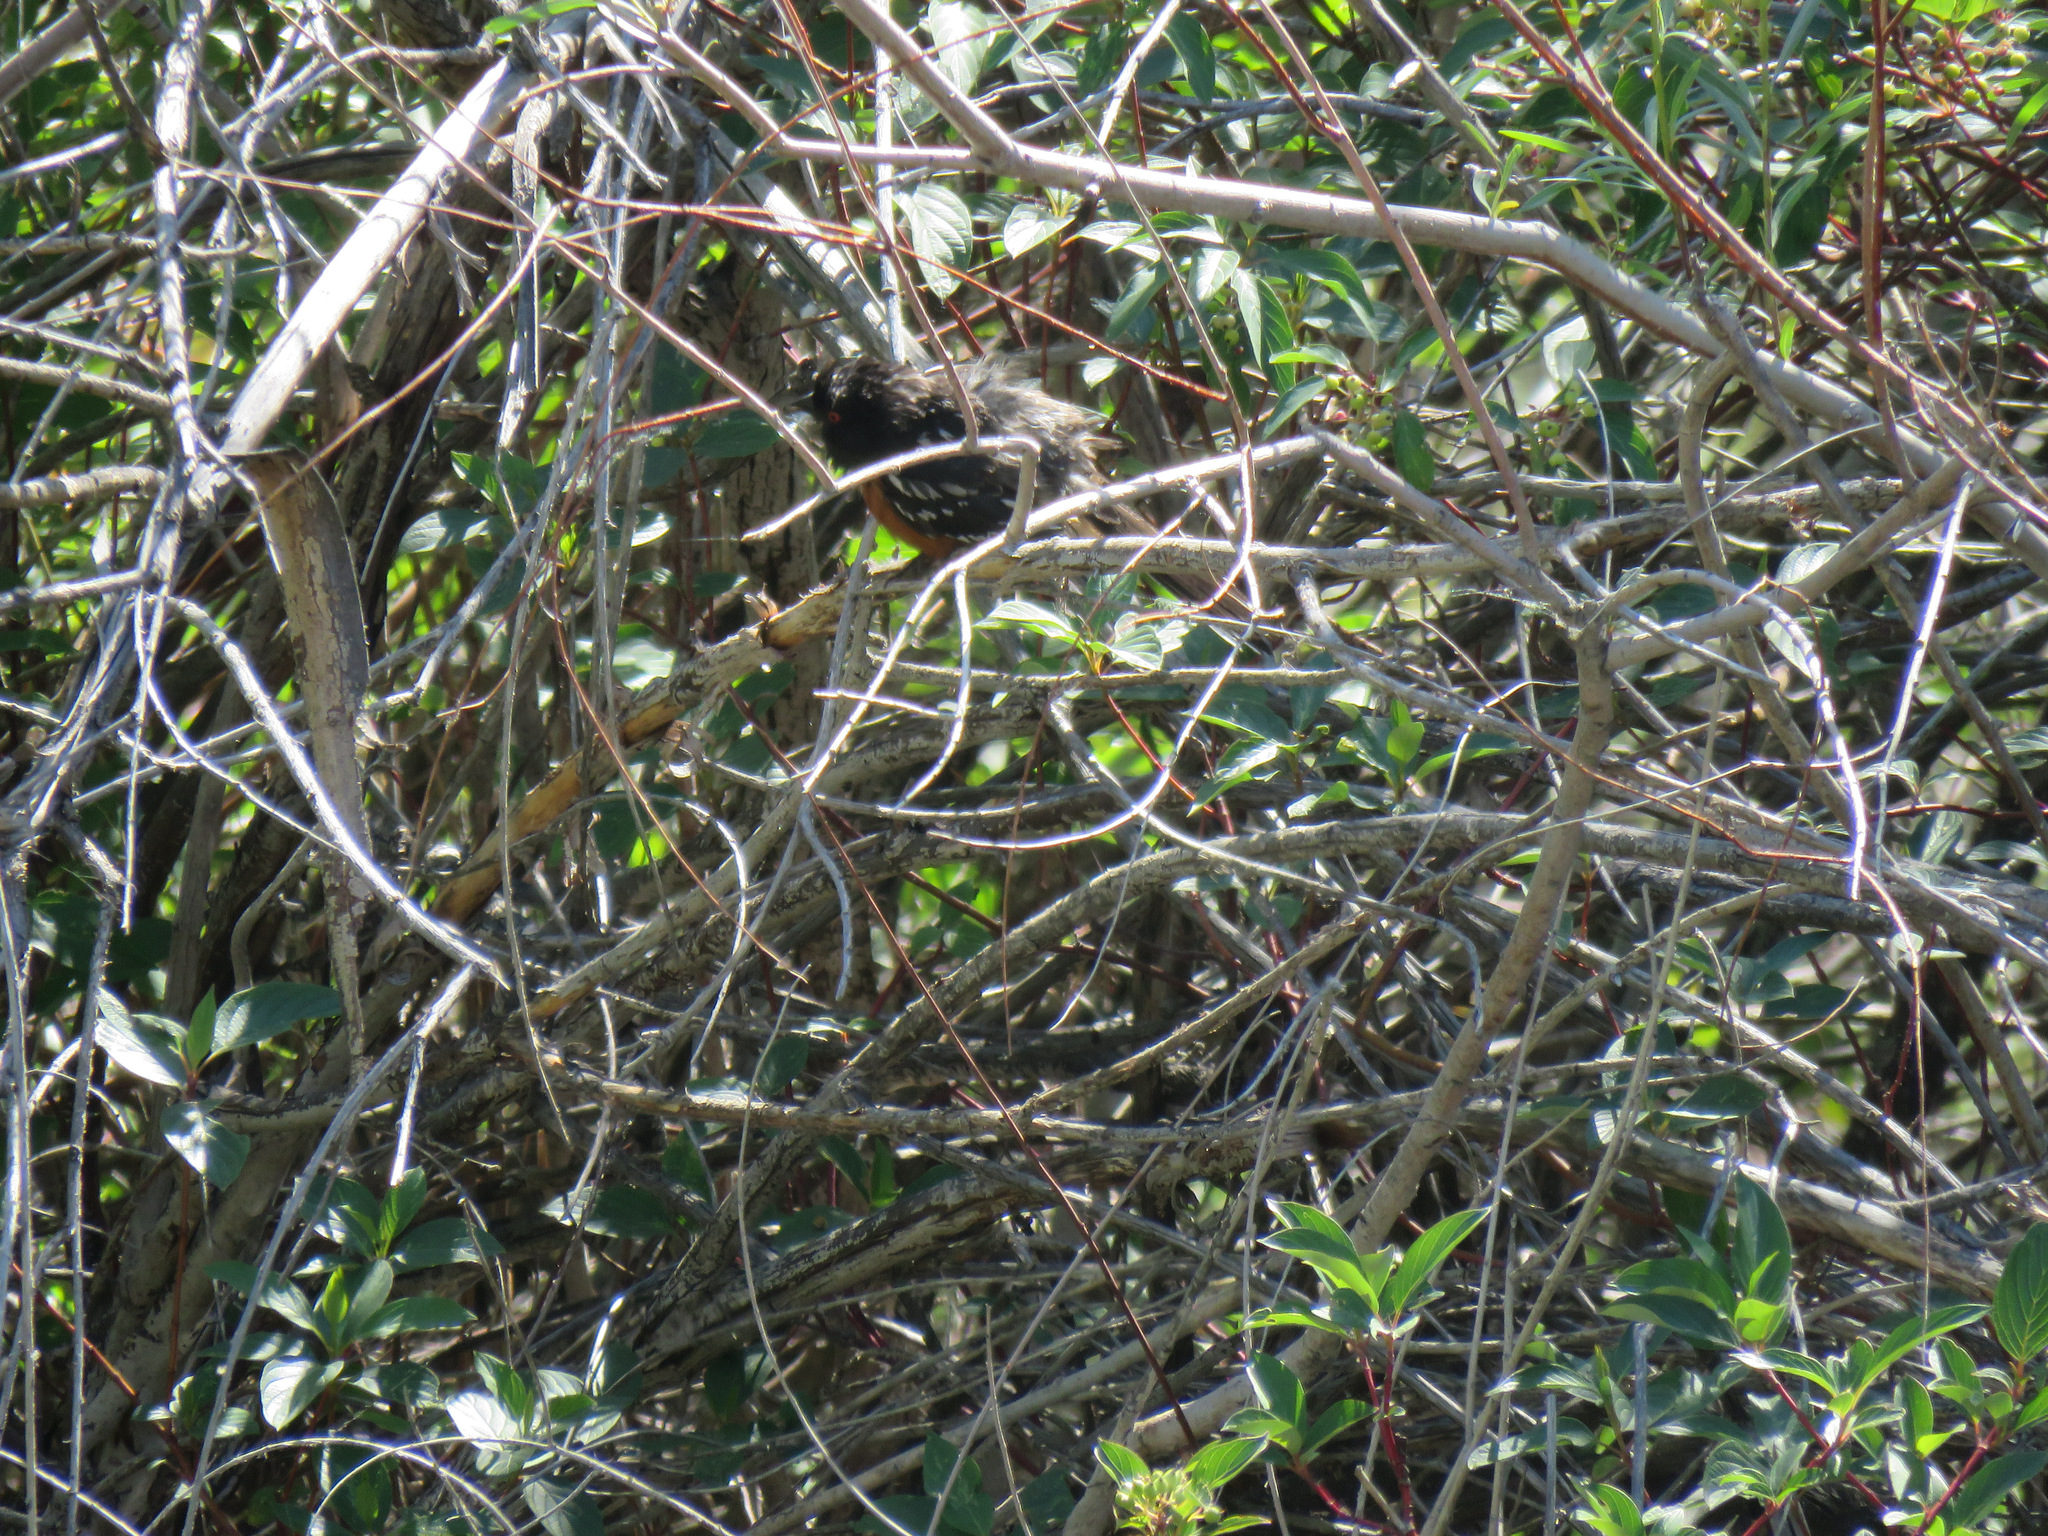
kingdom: Animalia
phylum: Chordata
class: Aves
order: Passeriformes
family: Passerellidae
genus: Pipilo
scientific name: Pipilo maculatus
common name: Spotted towhee
